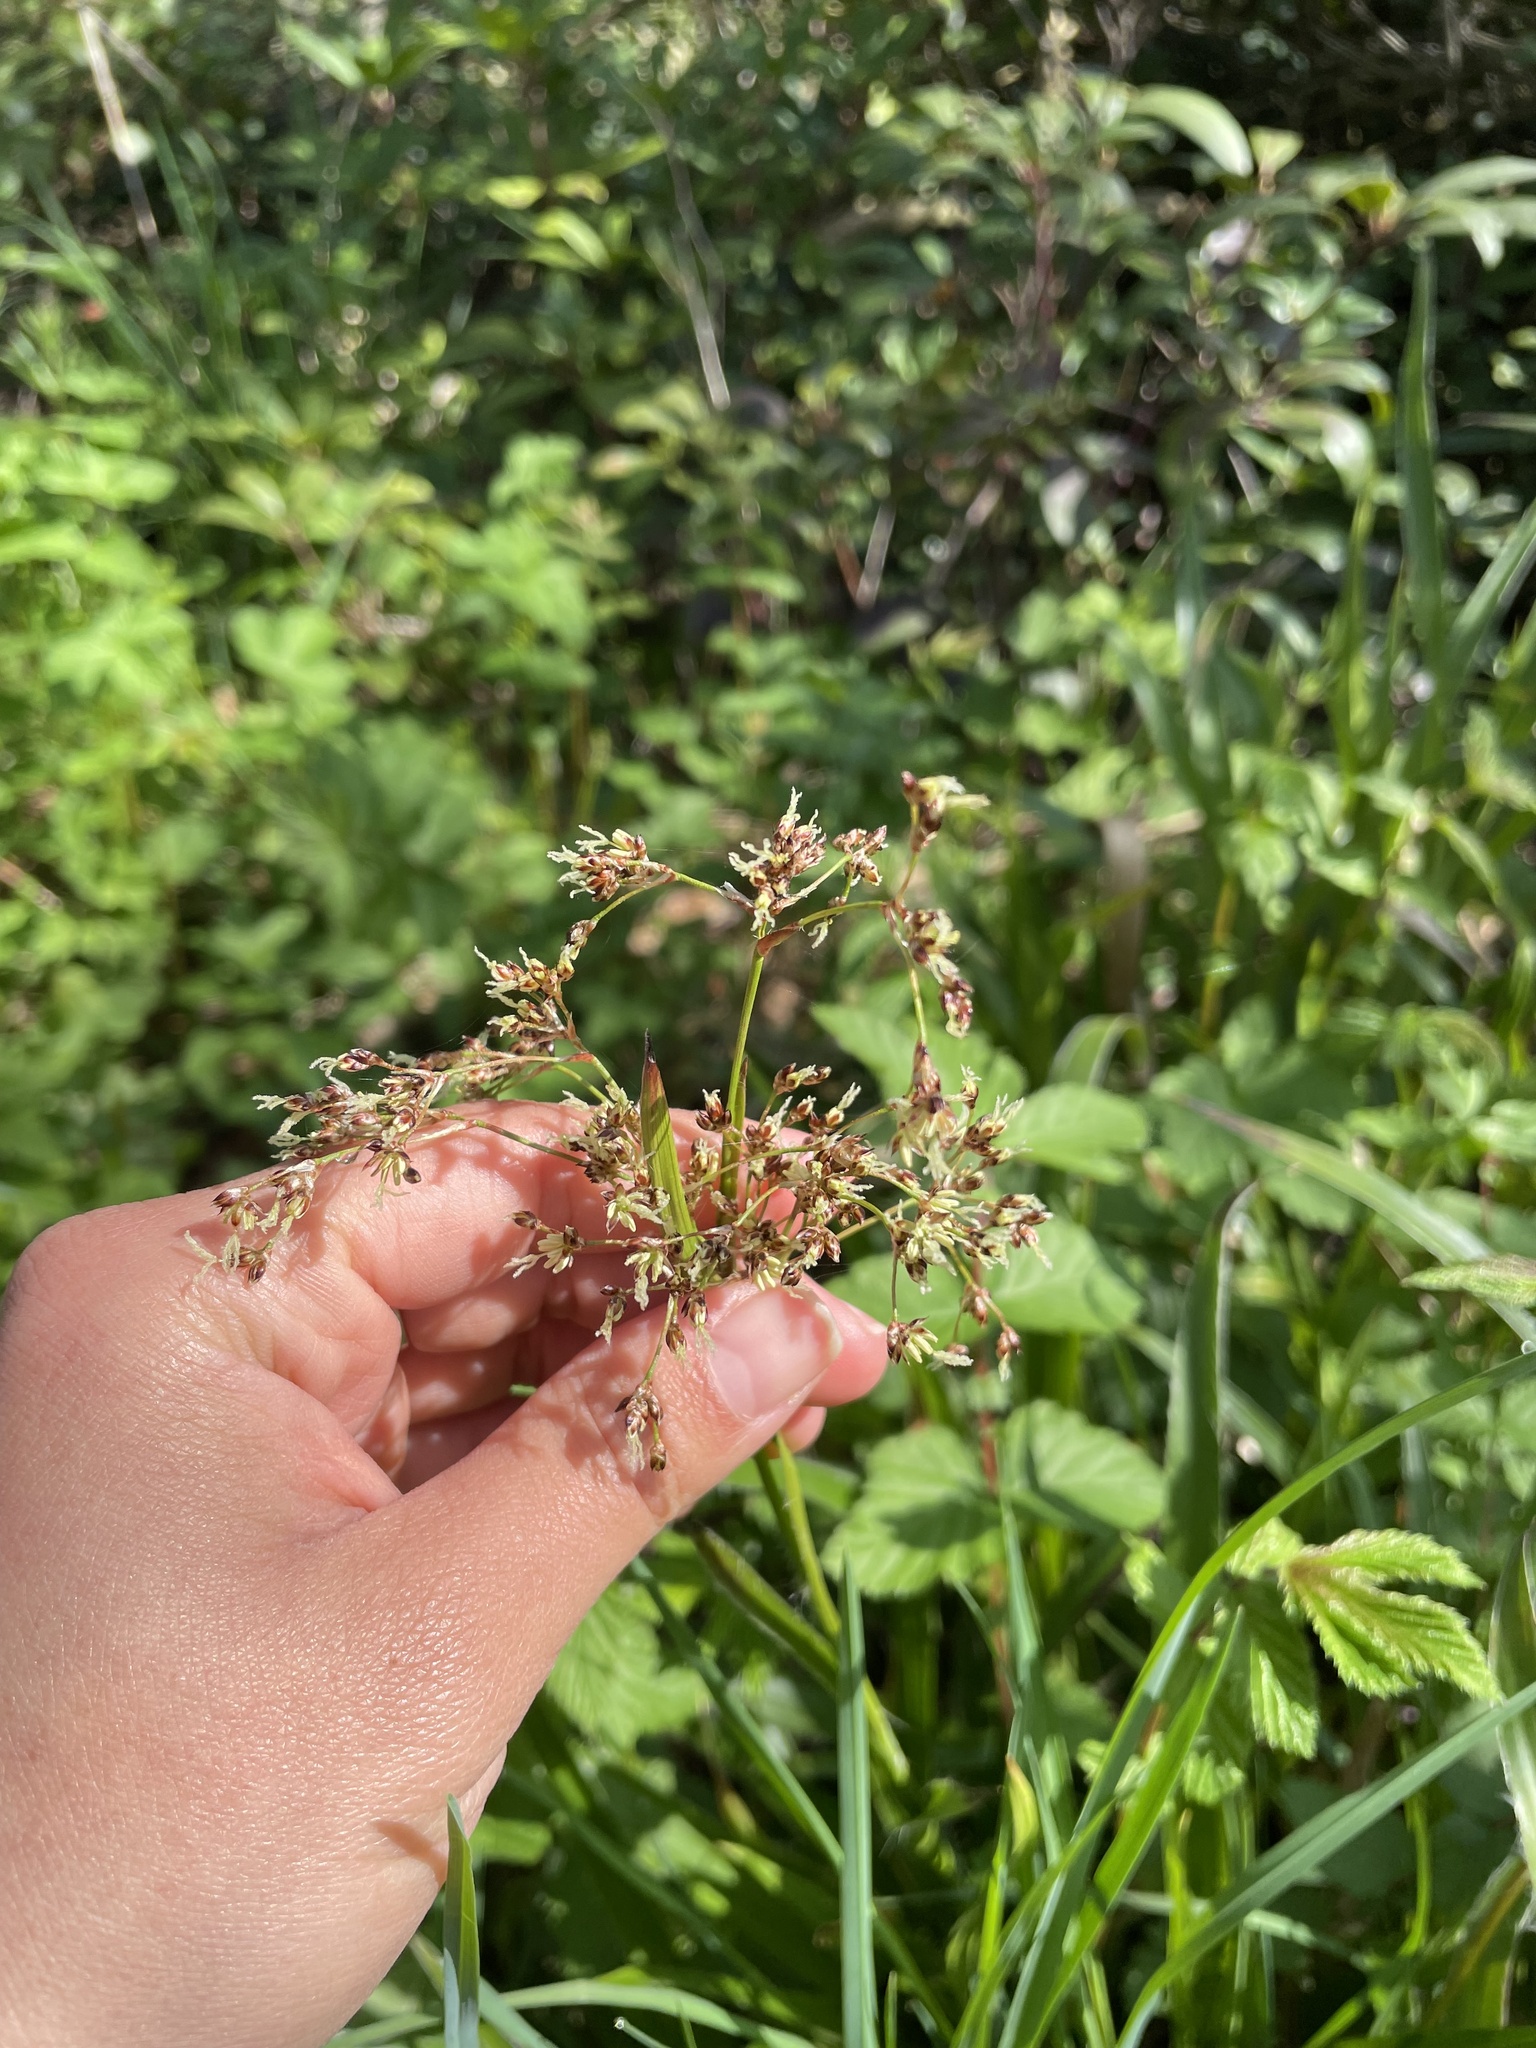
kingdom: Plantae
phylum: Tracheophyta
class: Liliopsida
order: Poales
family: Juncaceae
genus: Luzula
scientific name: Luzula sylvatica
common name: Great wood-rush
